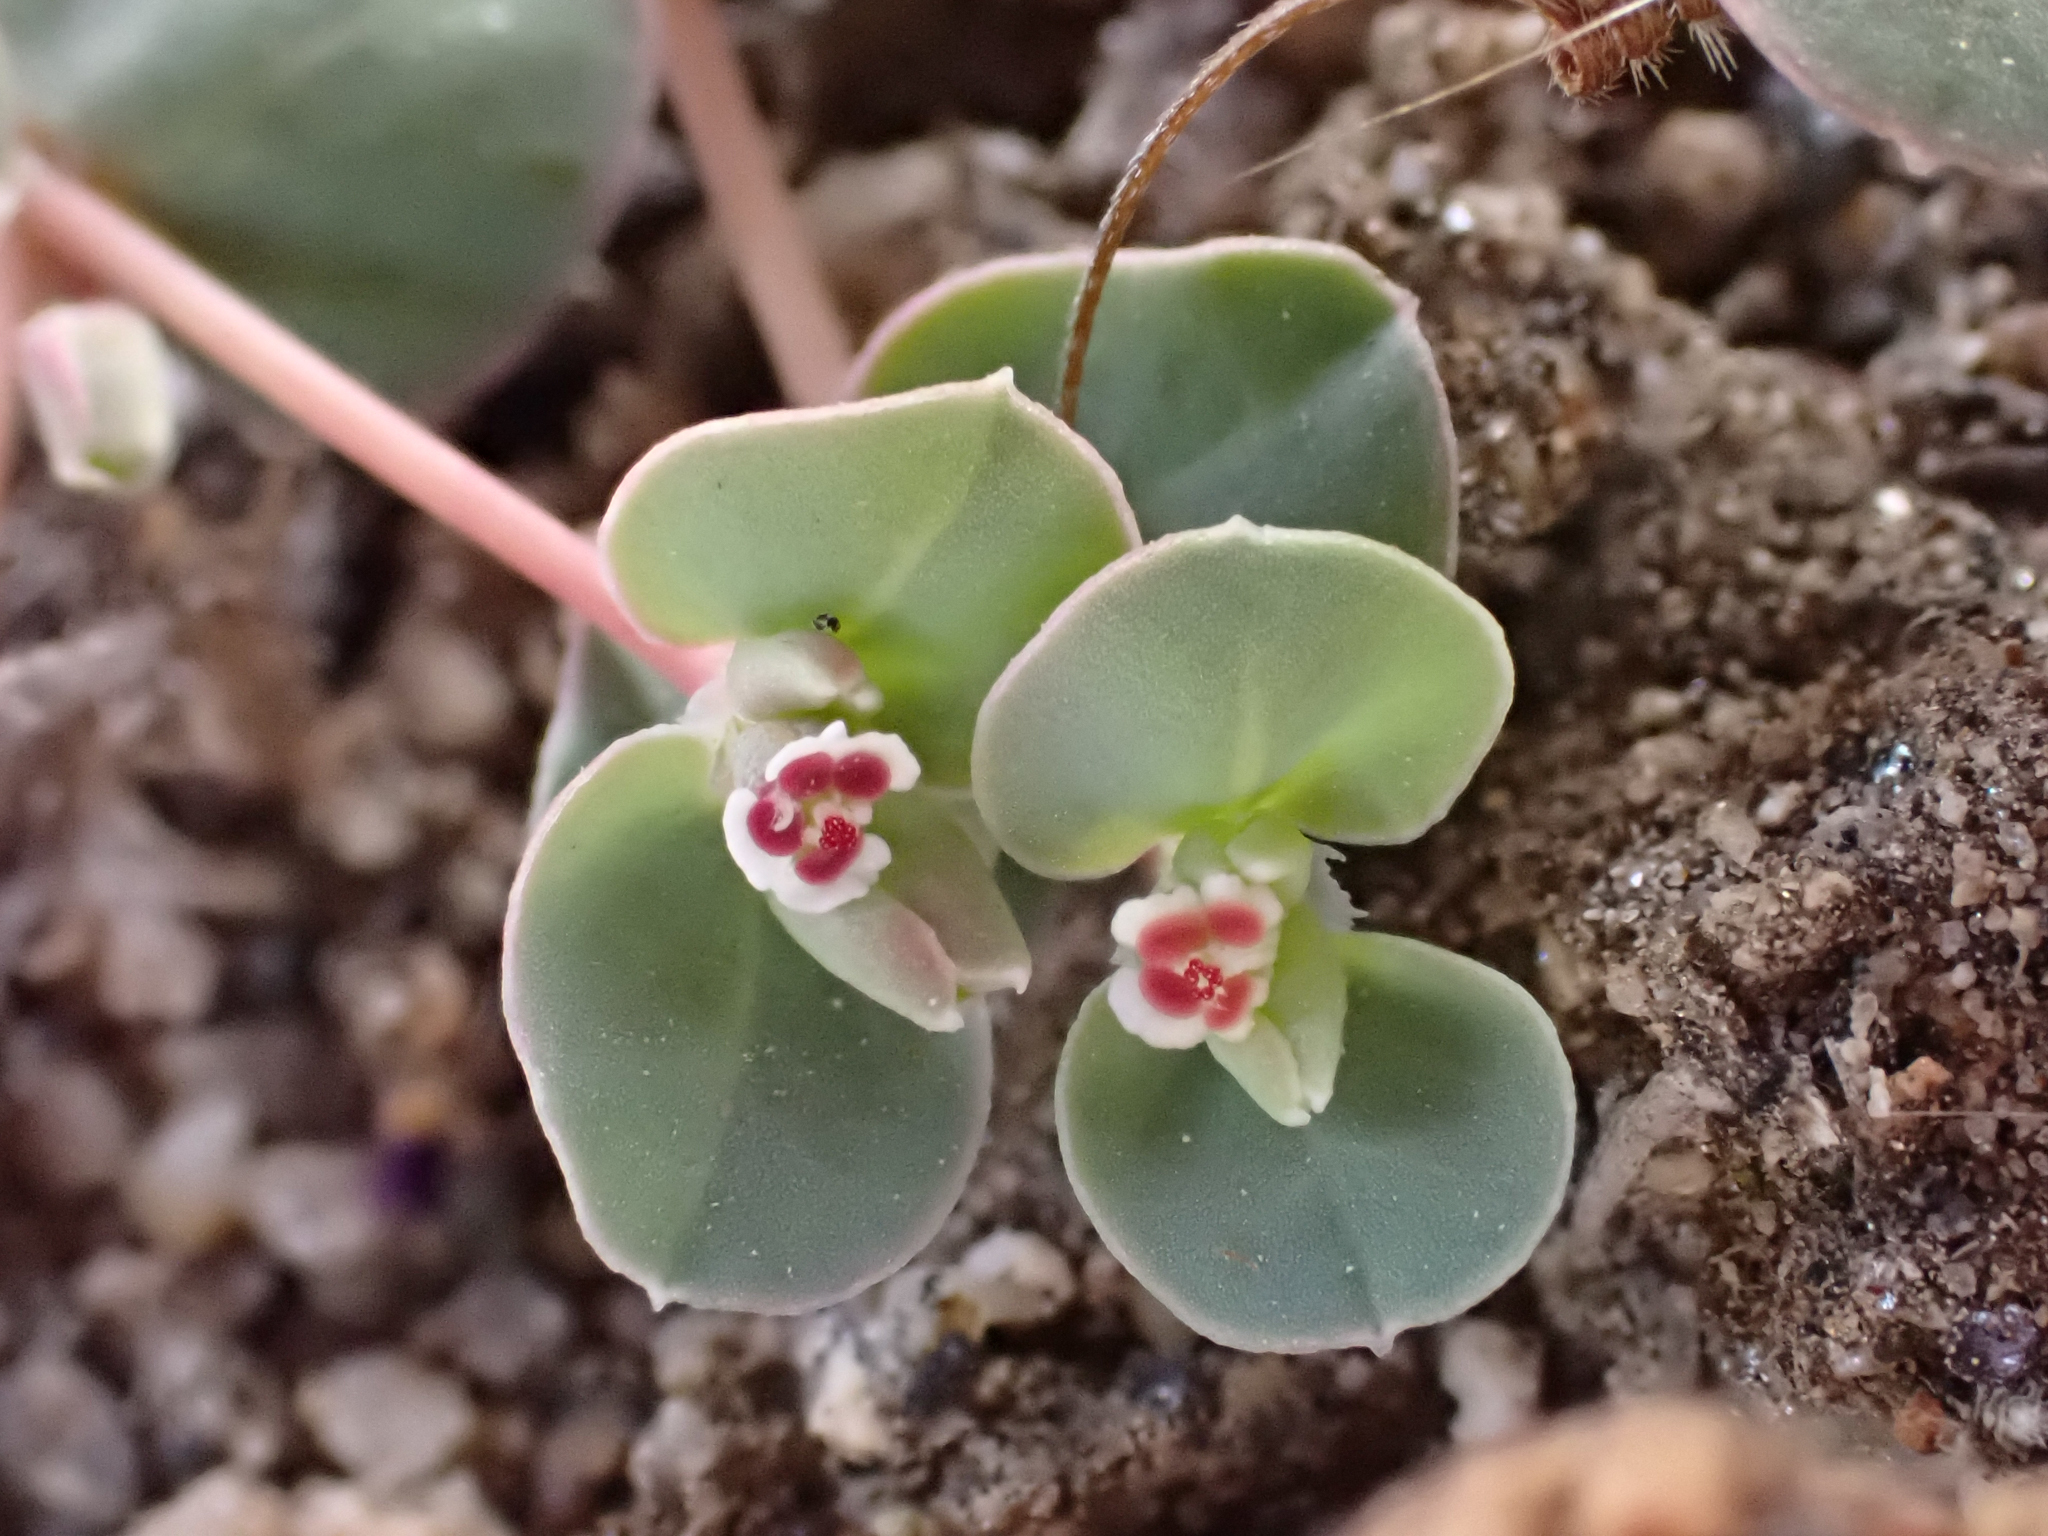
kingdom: Plantae
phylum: Tracheophyta
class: Magnoliopsida
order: Malpighiales
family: Euphorbiaceae
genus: Euphorbia
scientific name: Euphorbia albomarginata
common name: Whitemargin sandmat
